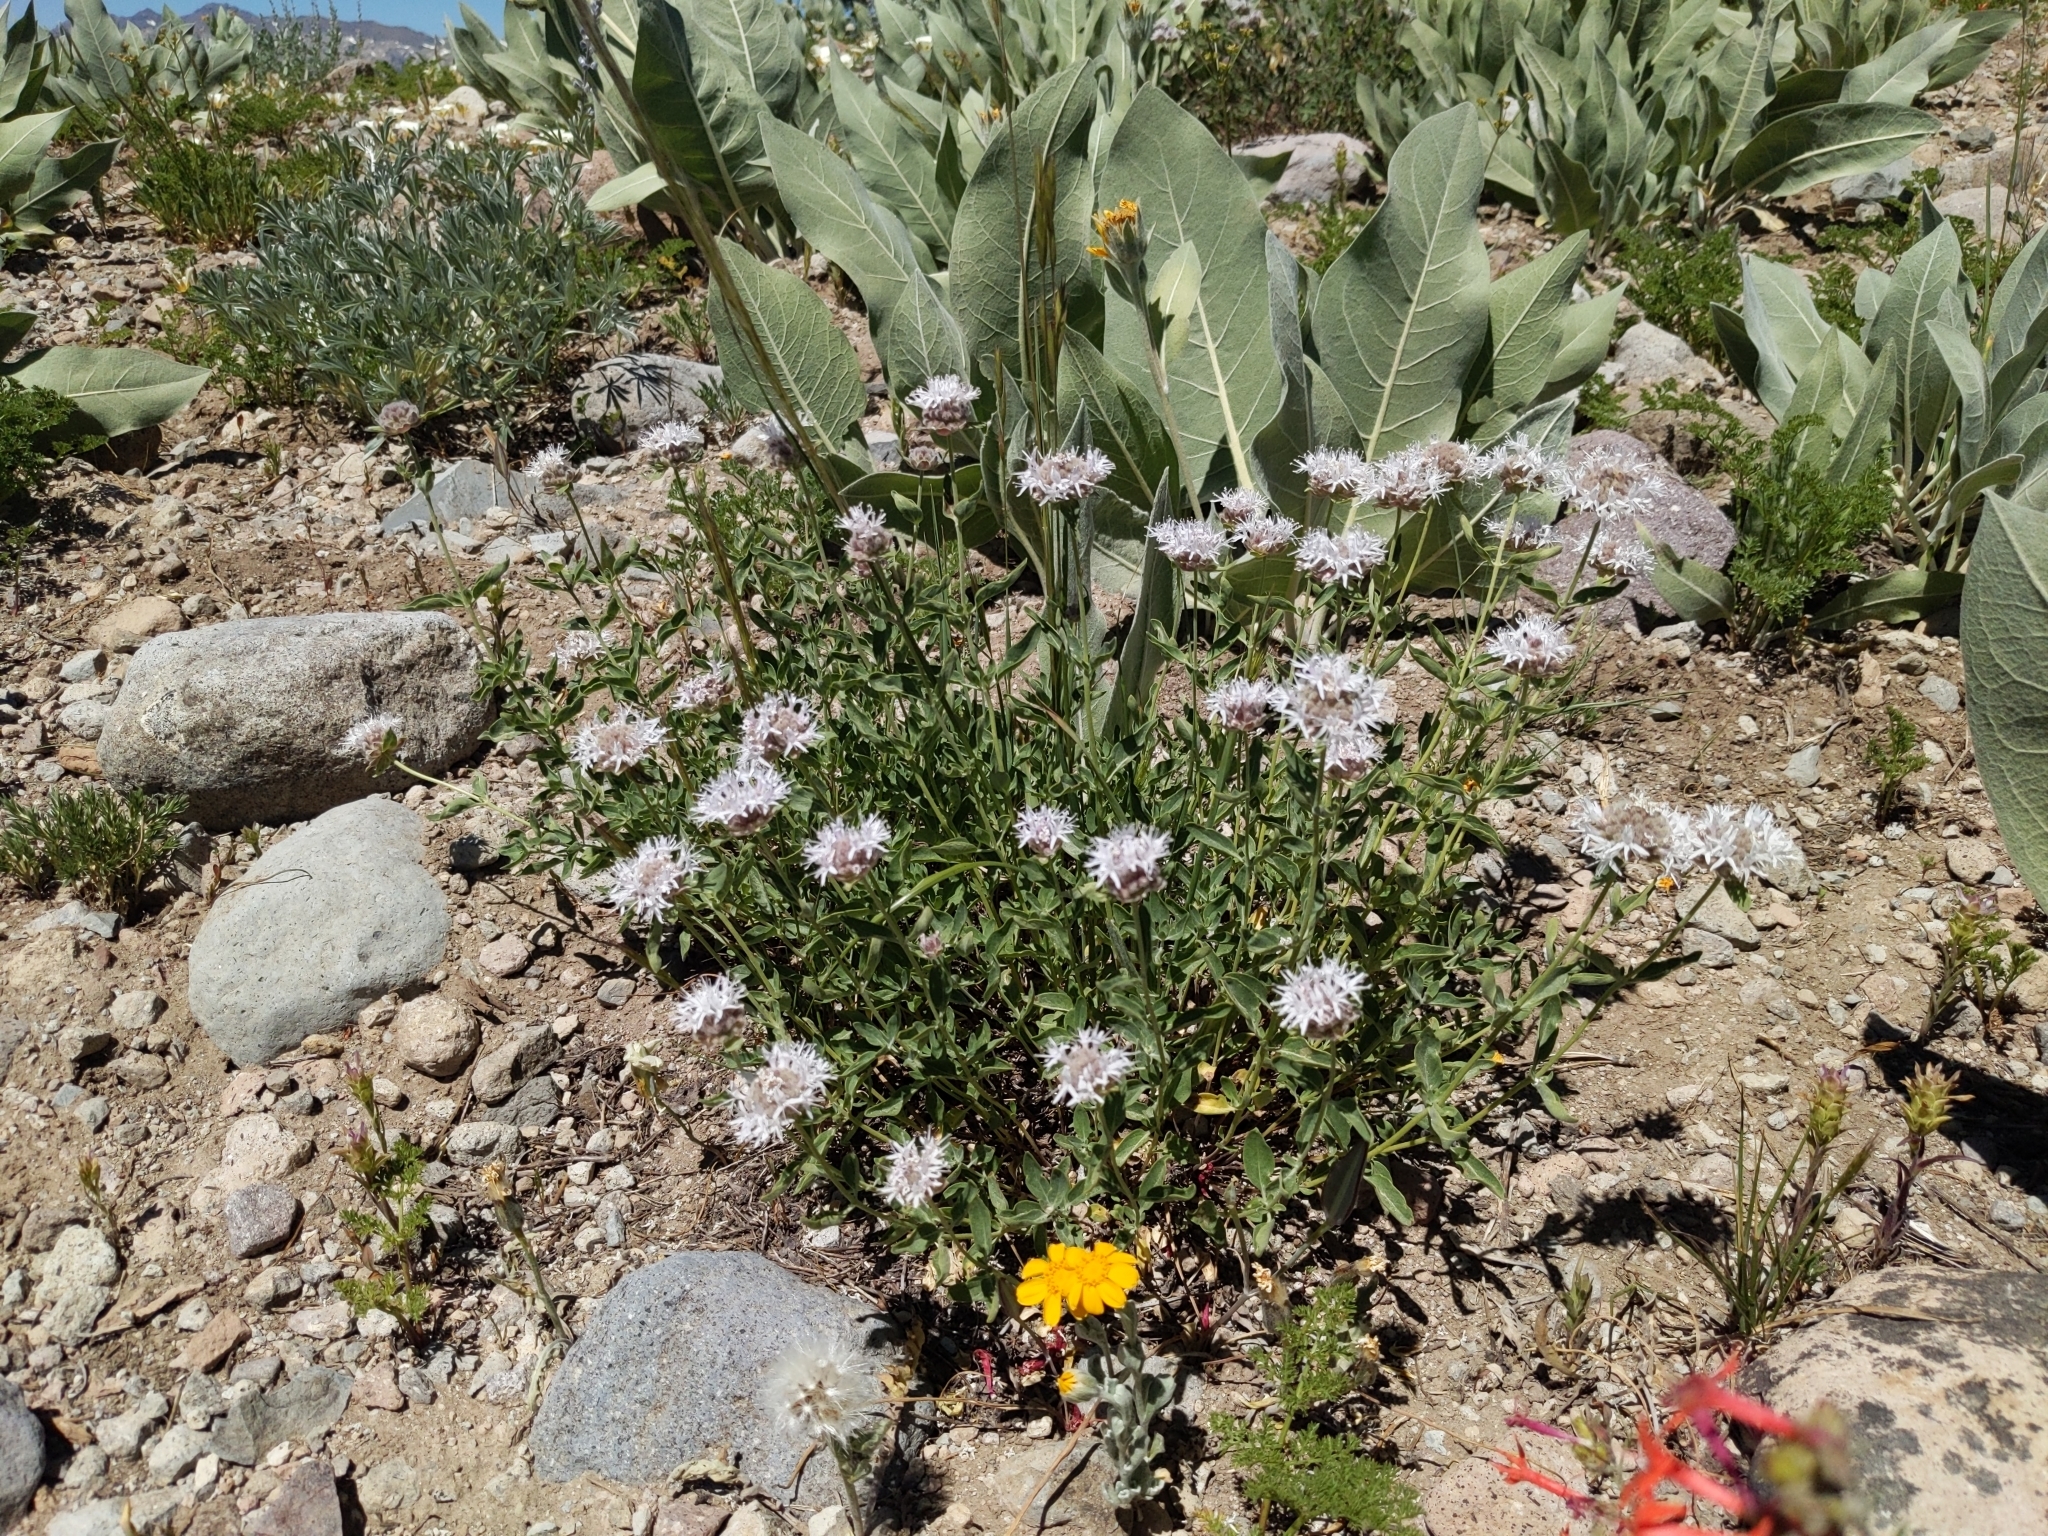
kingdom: Plantae
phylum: Tracheophyta
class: Magnoliopsida
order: Lamiales
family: Lamiaceae
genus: Monardella
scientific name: Monardella odoratissima
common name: Pacific monardella
